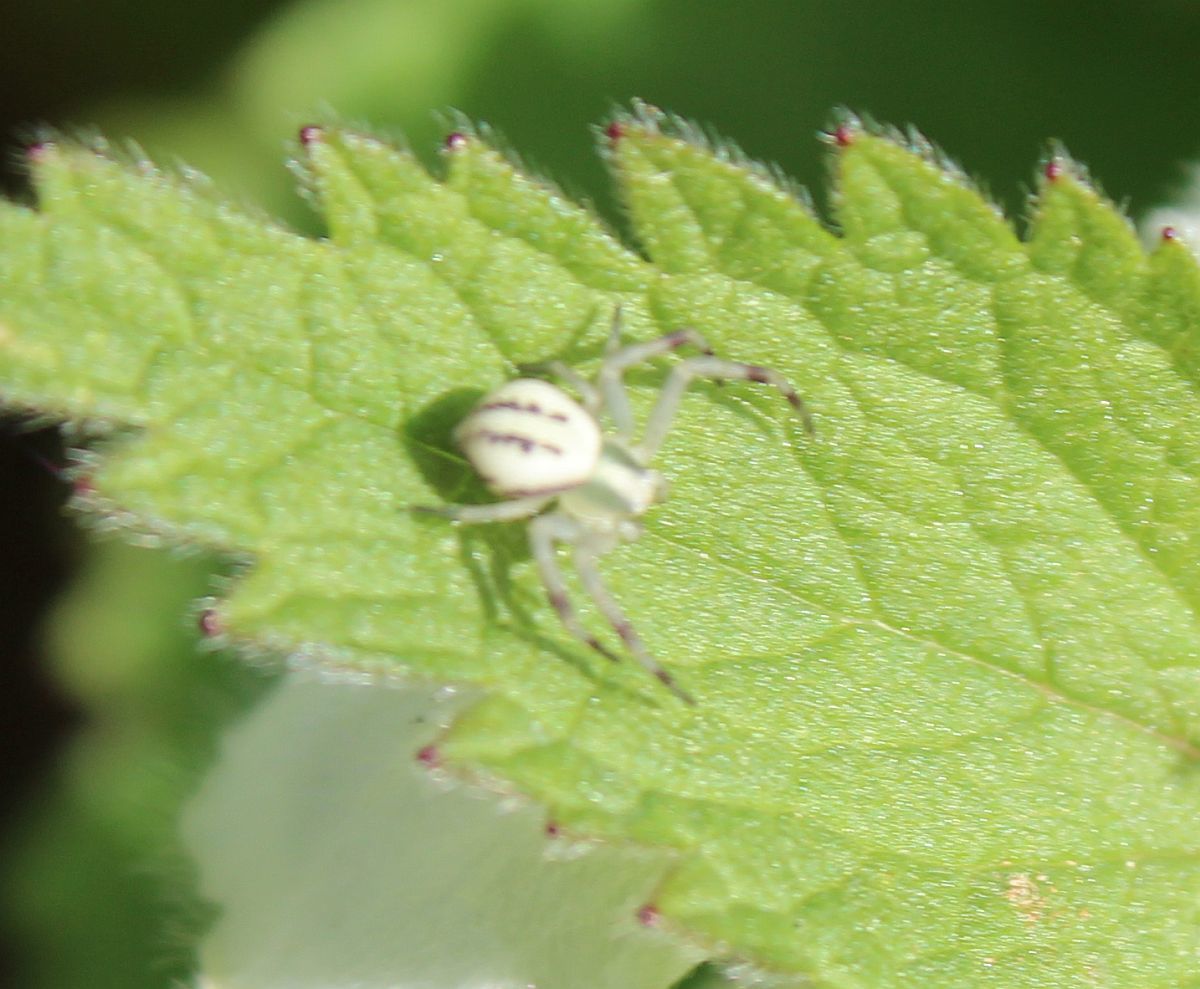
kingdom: Animalia
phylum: Arthropoda
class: Arachnida
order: Araneae
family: Thomisidae
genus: Misumena
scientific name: Misumena vatia
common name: Goldenrod crab spider
